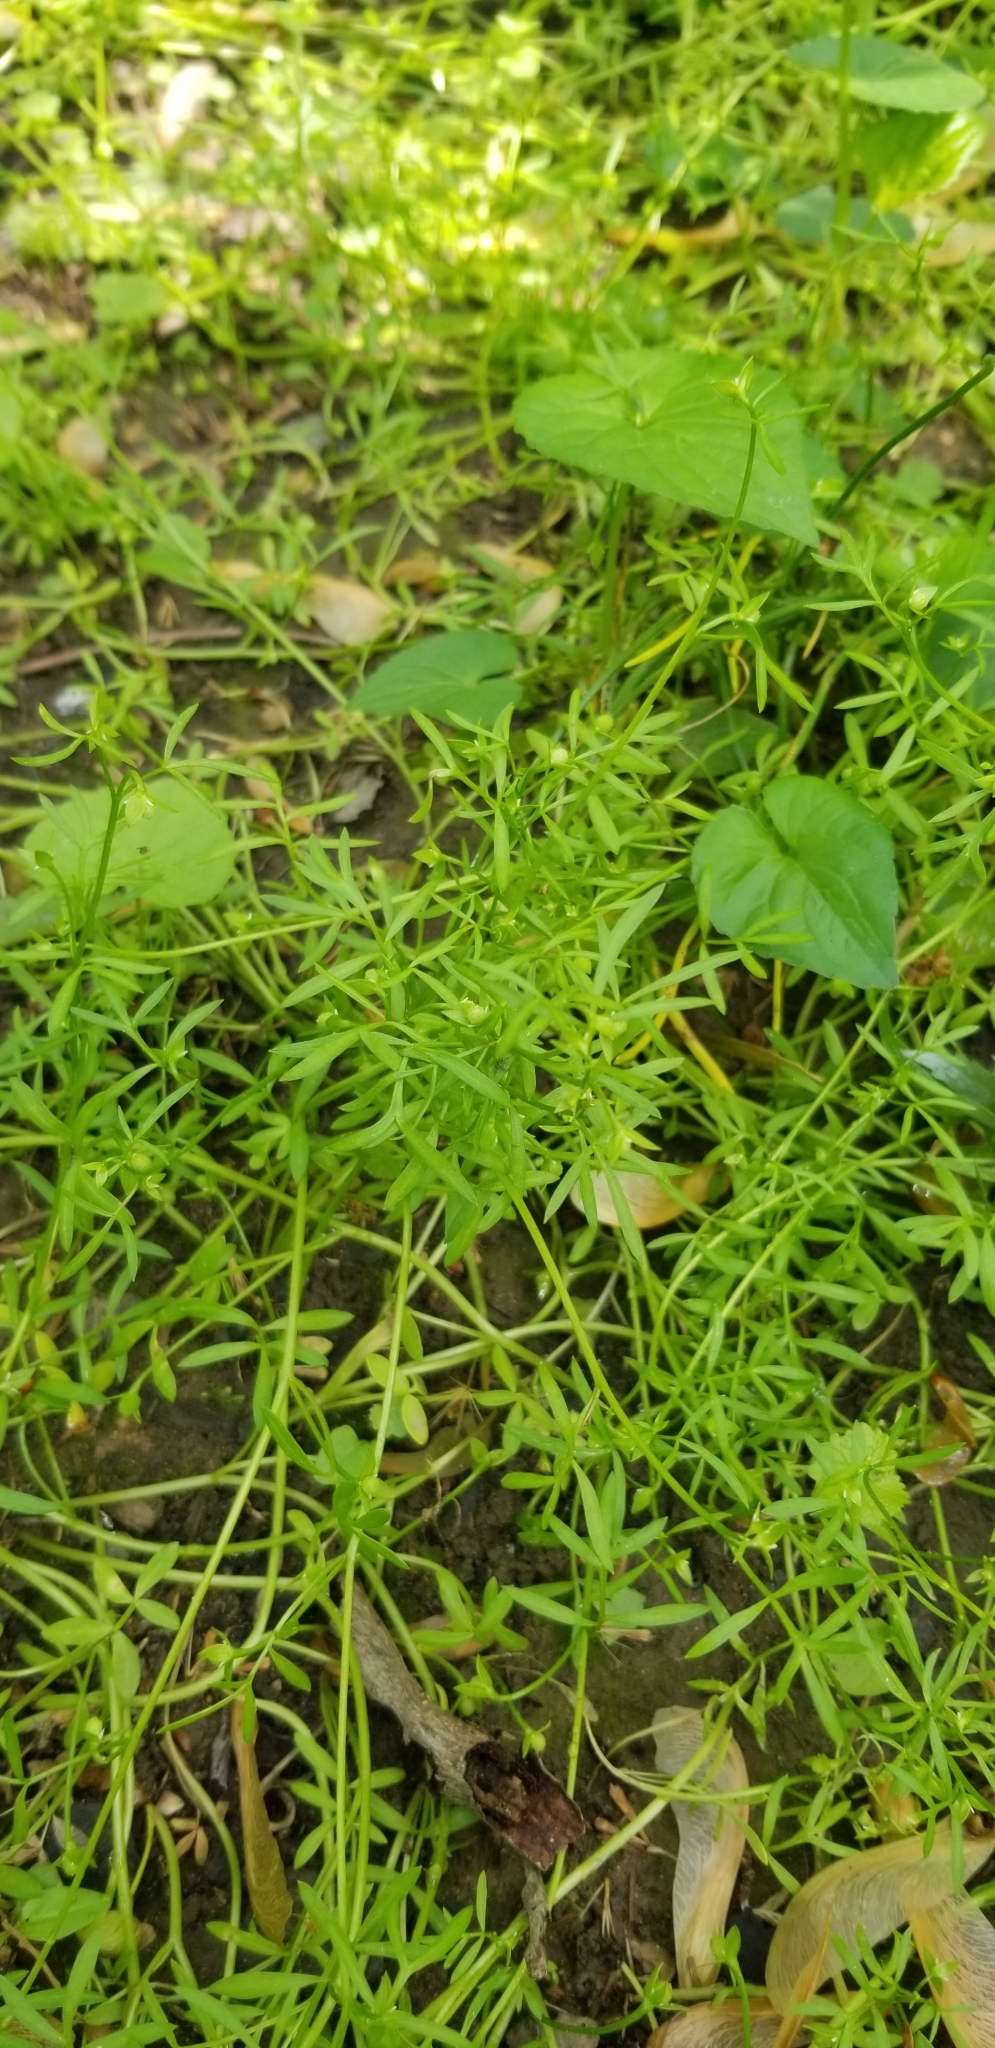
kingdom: Plantae
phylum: Tracheophyta
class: Magnoliopsida
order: Brassicales
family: Limnanthaceae
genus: Floerkea
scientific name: Floerkea proserpinacoides
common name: False mermaid
